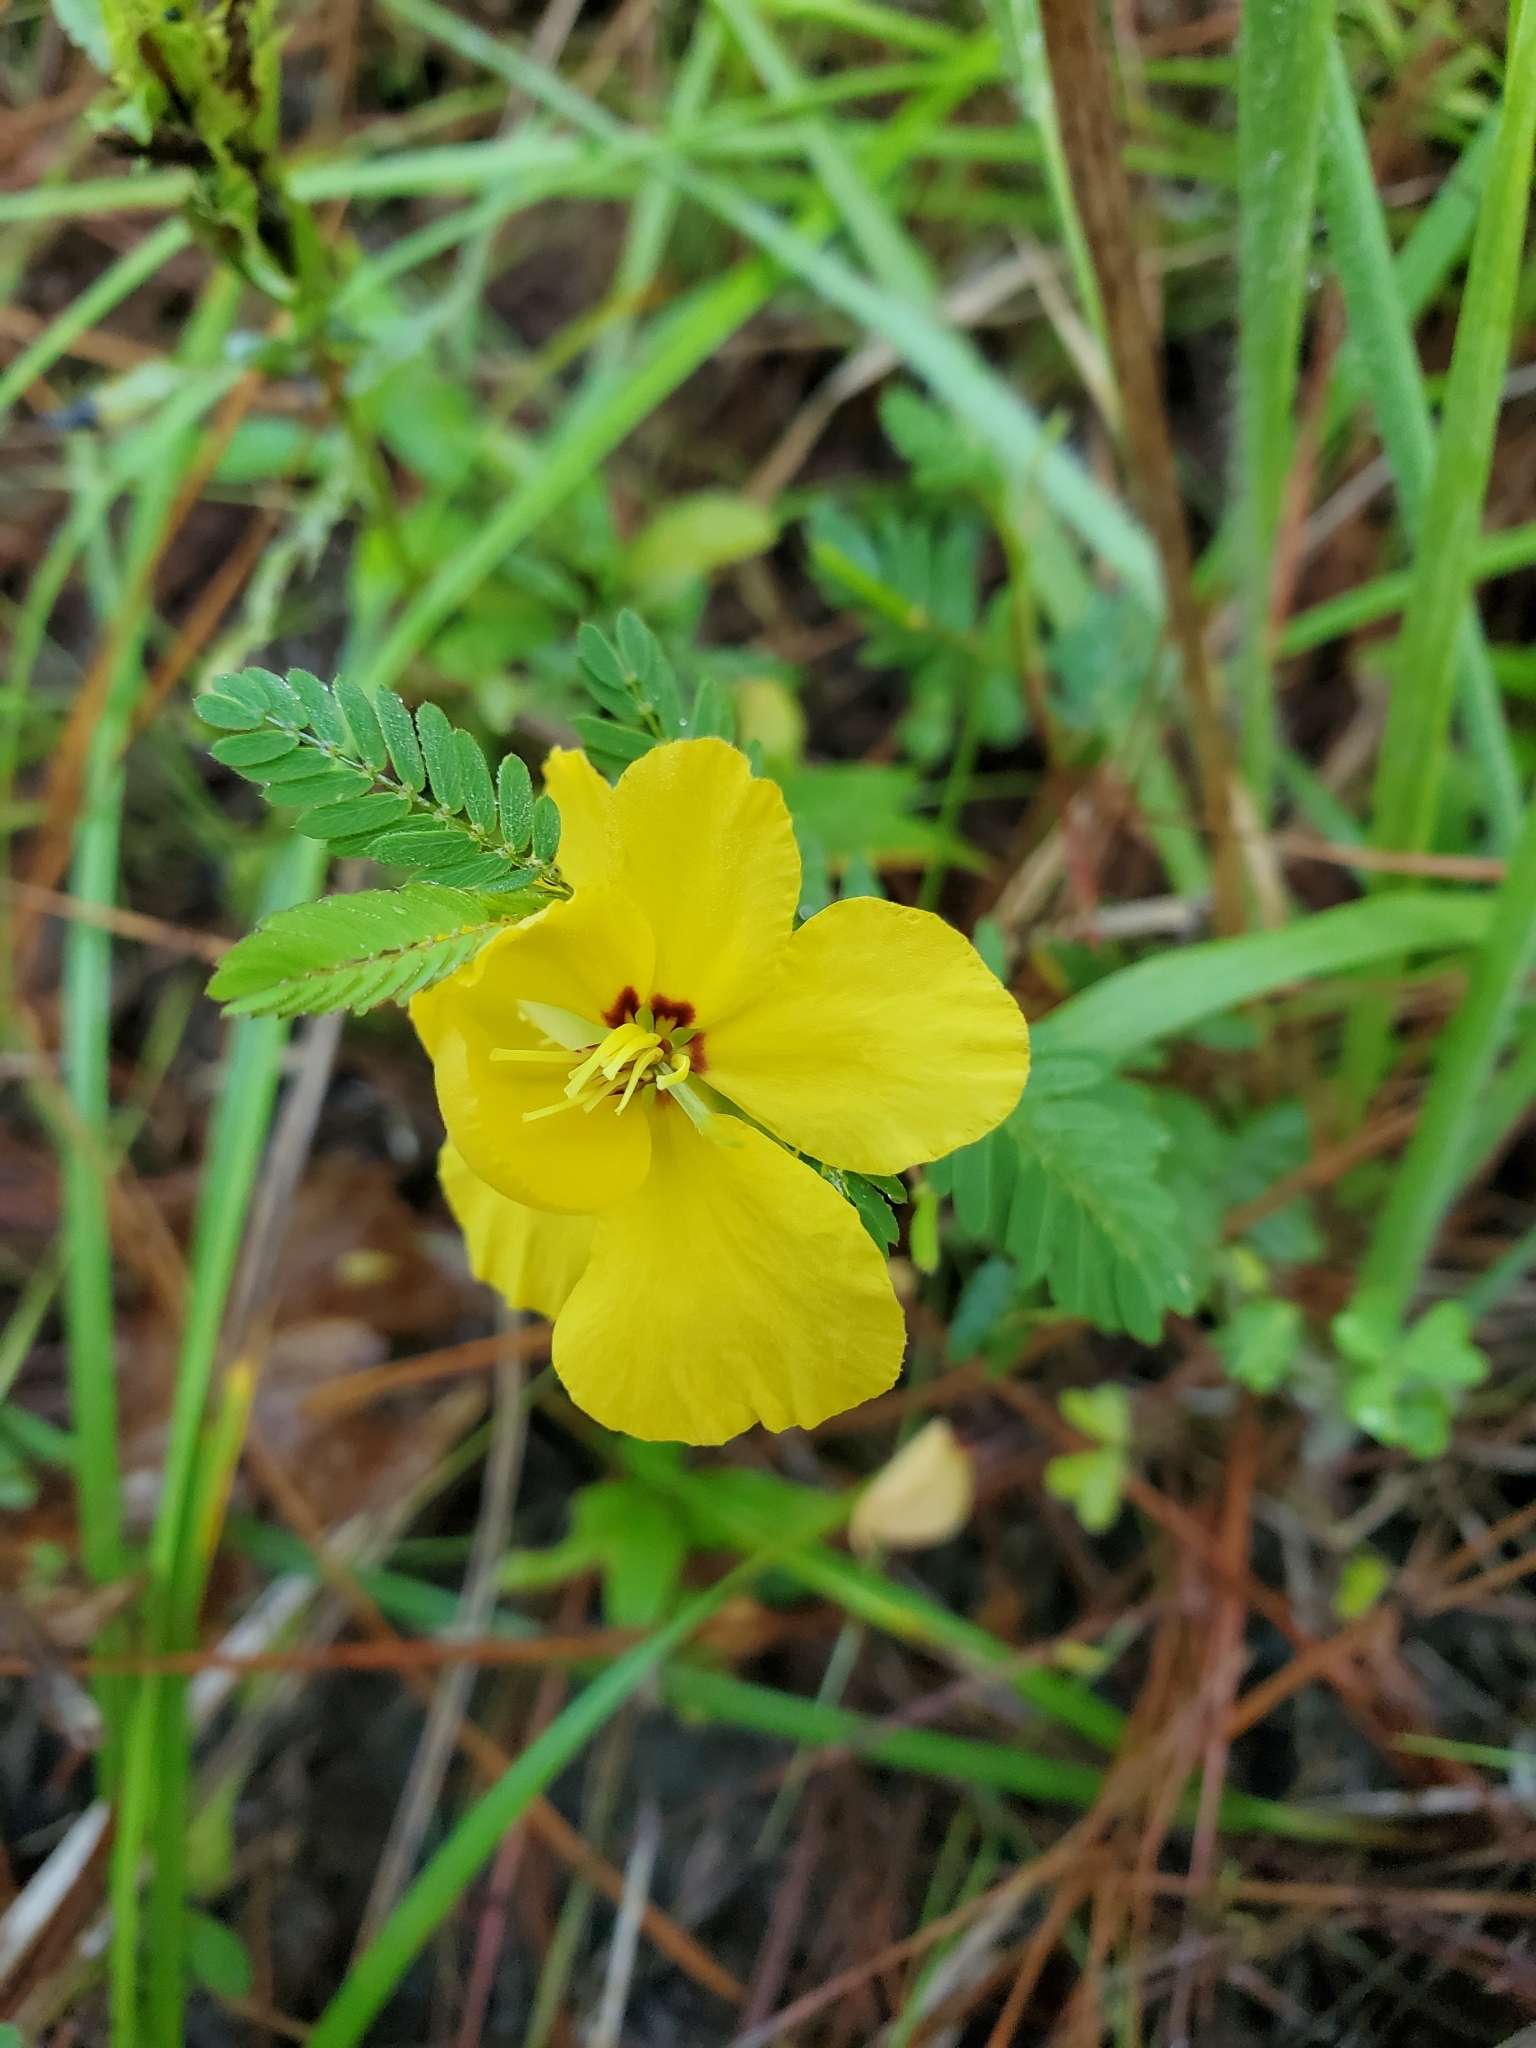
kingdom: Plantae
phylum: Tracheophyta
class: Magnoliopsida
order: Fabales
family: Fabaceae
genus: Chamaecrista
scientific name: Chamaecrista fasciculata
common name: Golden cassia
